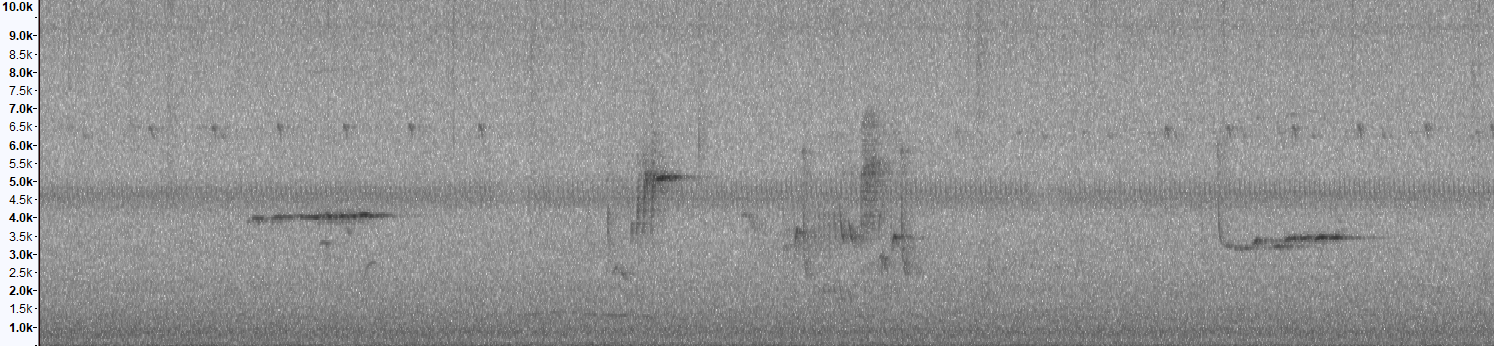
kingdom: Animalia
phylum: Chordata
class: Aves
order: Passeriformes
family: Cettiidae
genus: Phyllergates
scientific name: Phyllergates cuculatus
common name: Mountain tailorbird
